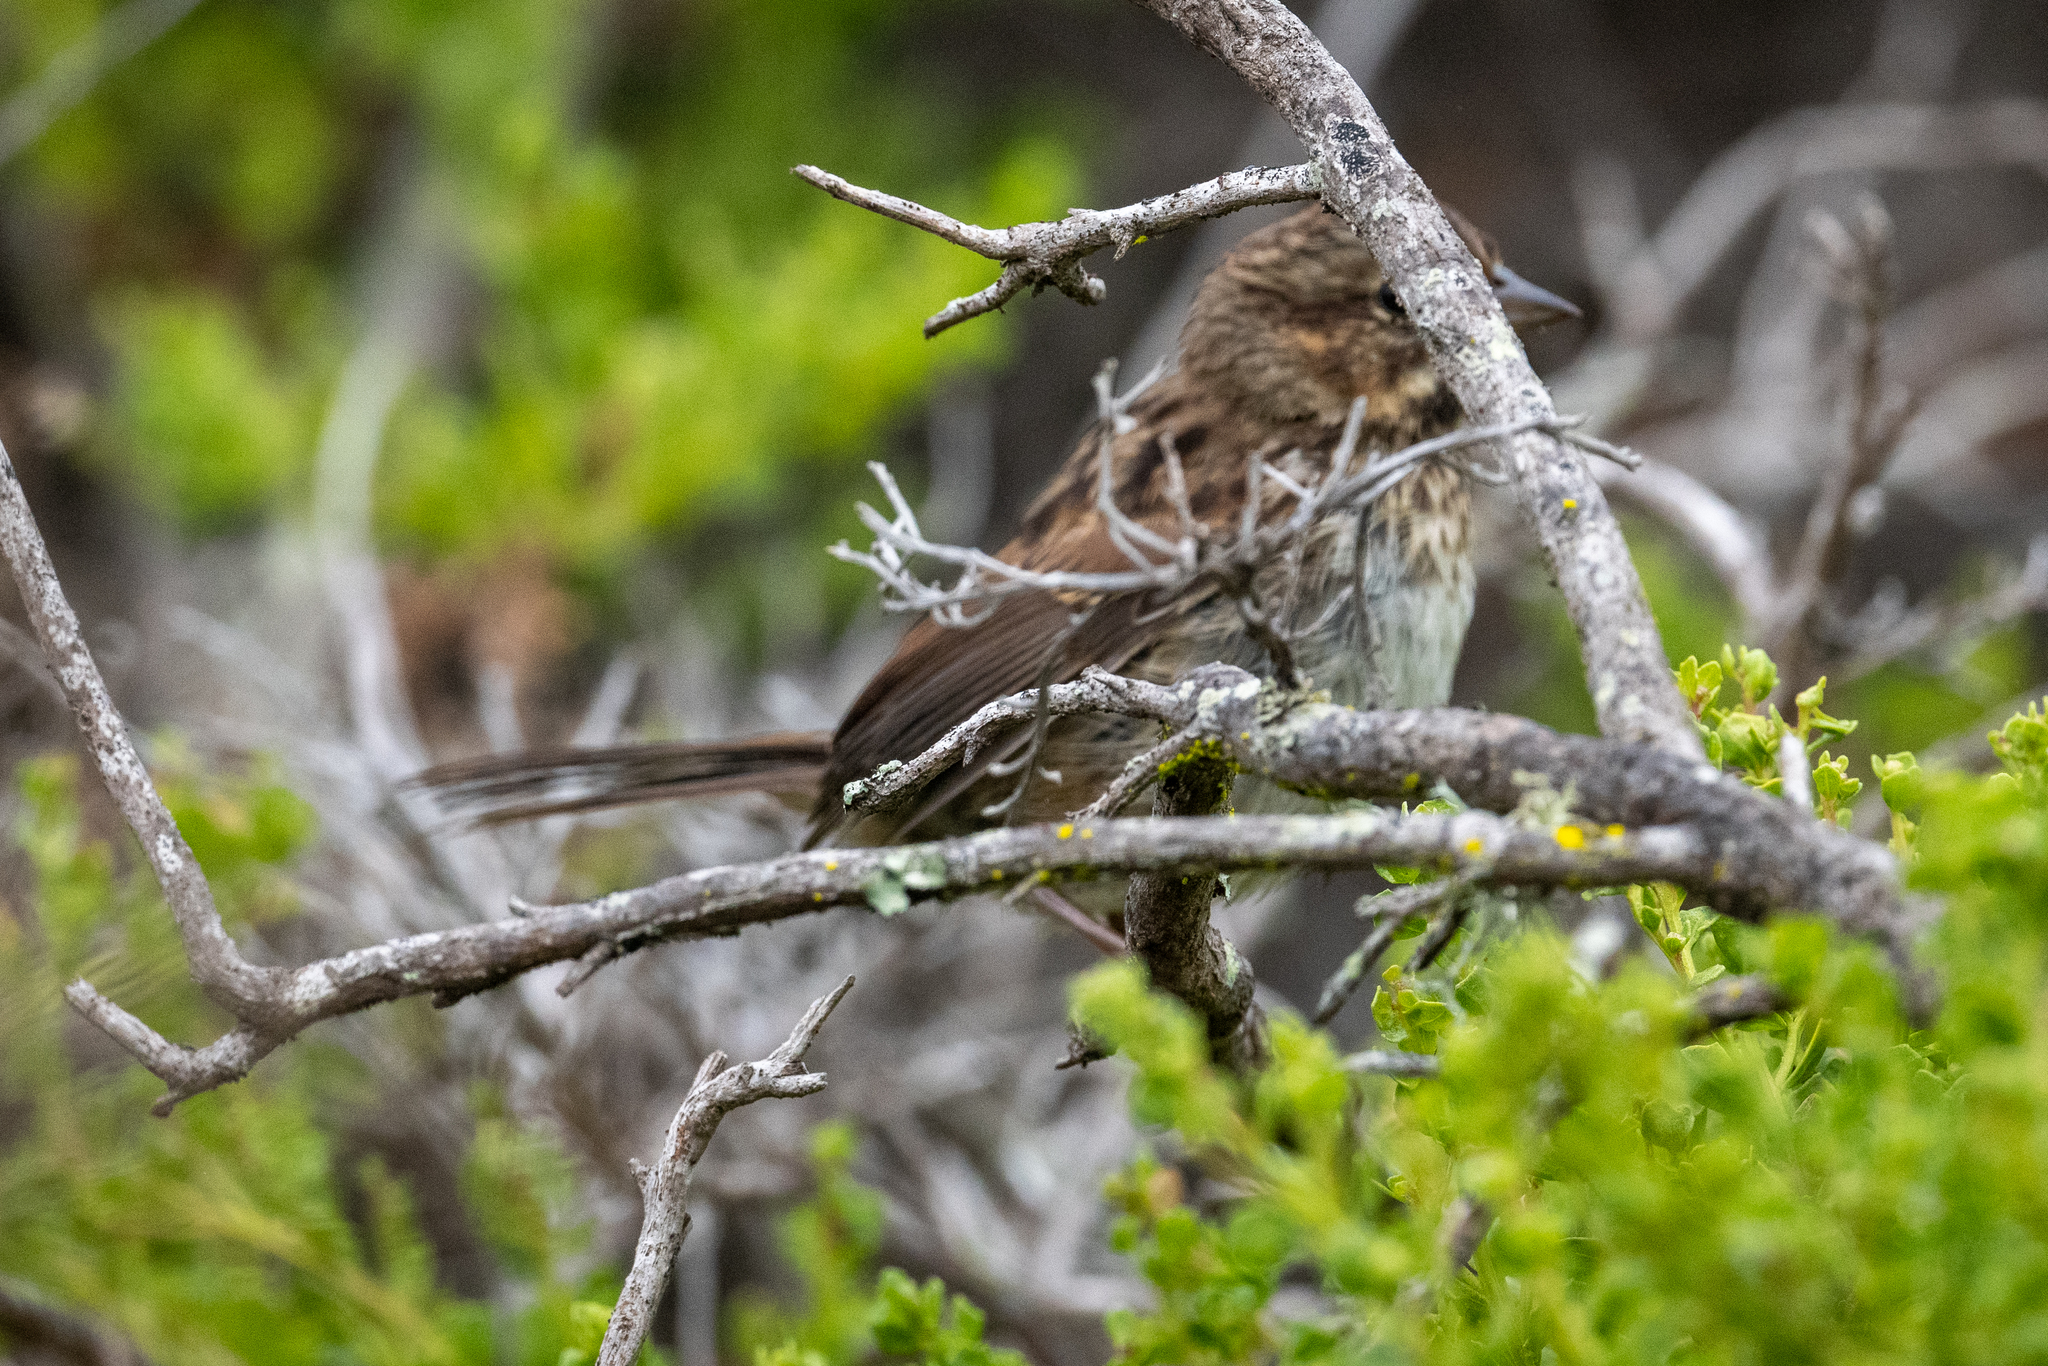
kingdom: Animalia
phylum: Chordata
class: Aves
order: Passeriformes
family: Passerellidae
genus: Melospiza
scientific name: Melospiza melodia
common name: Song sparrow
